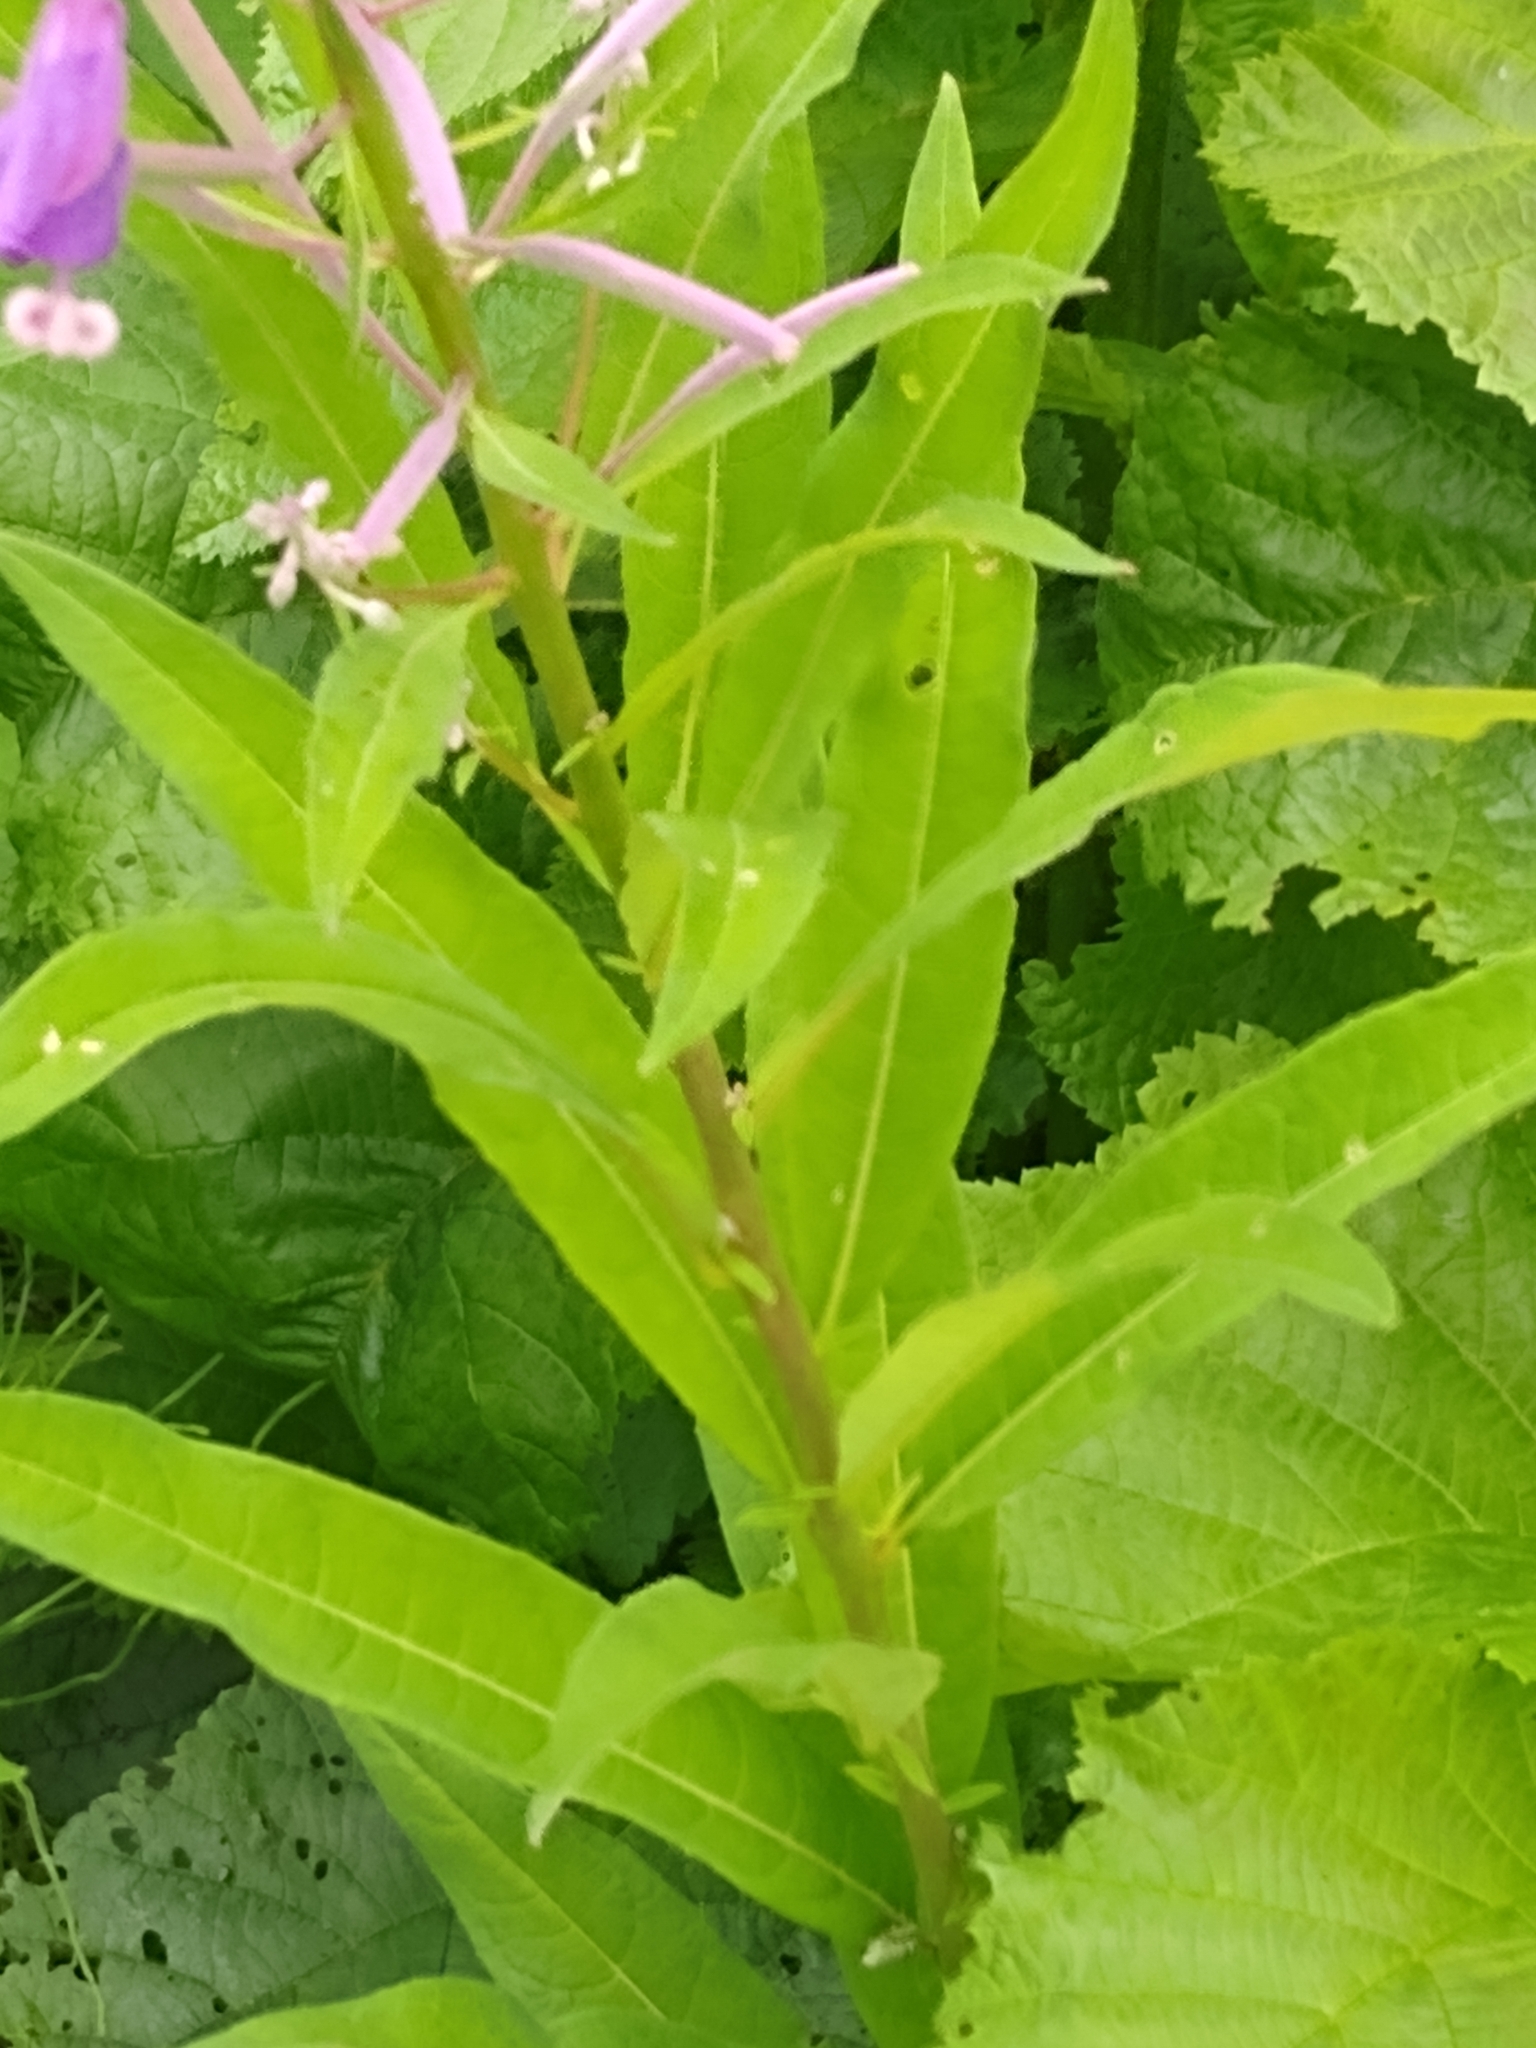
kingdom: Plantae
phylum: Tracheophyta
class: Magnoliopsida
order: Myrtales
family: Onagraceae
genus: Chamaenerion
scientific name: Chamaenerion angustifolium
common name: Fireweed
